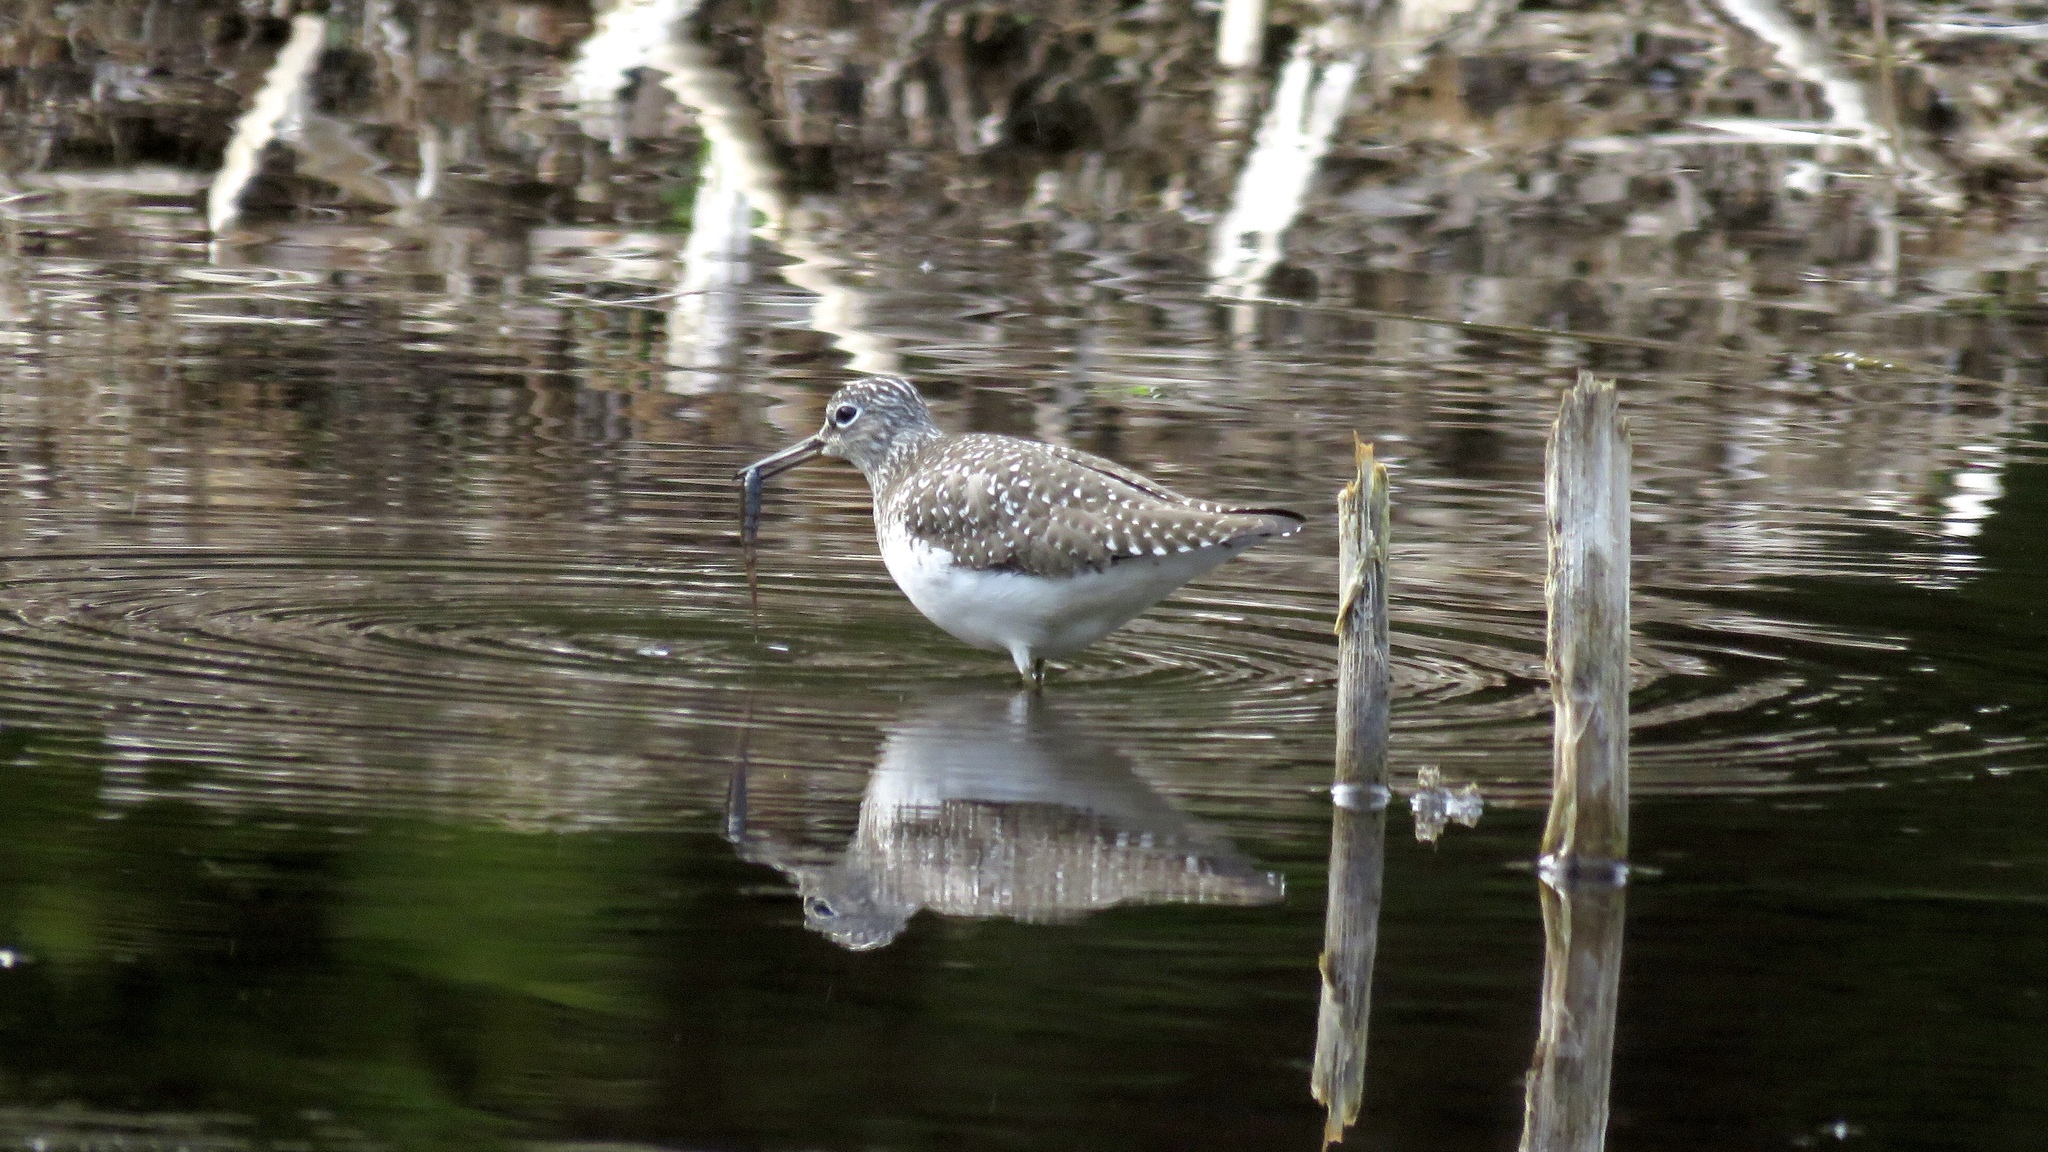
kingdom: Animalia
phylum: Chordata
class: Aves
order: Charadriiformes
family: Scolopacidae
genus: Tringa
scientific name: Tringa solitaria
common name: Solitary sandpiper
